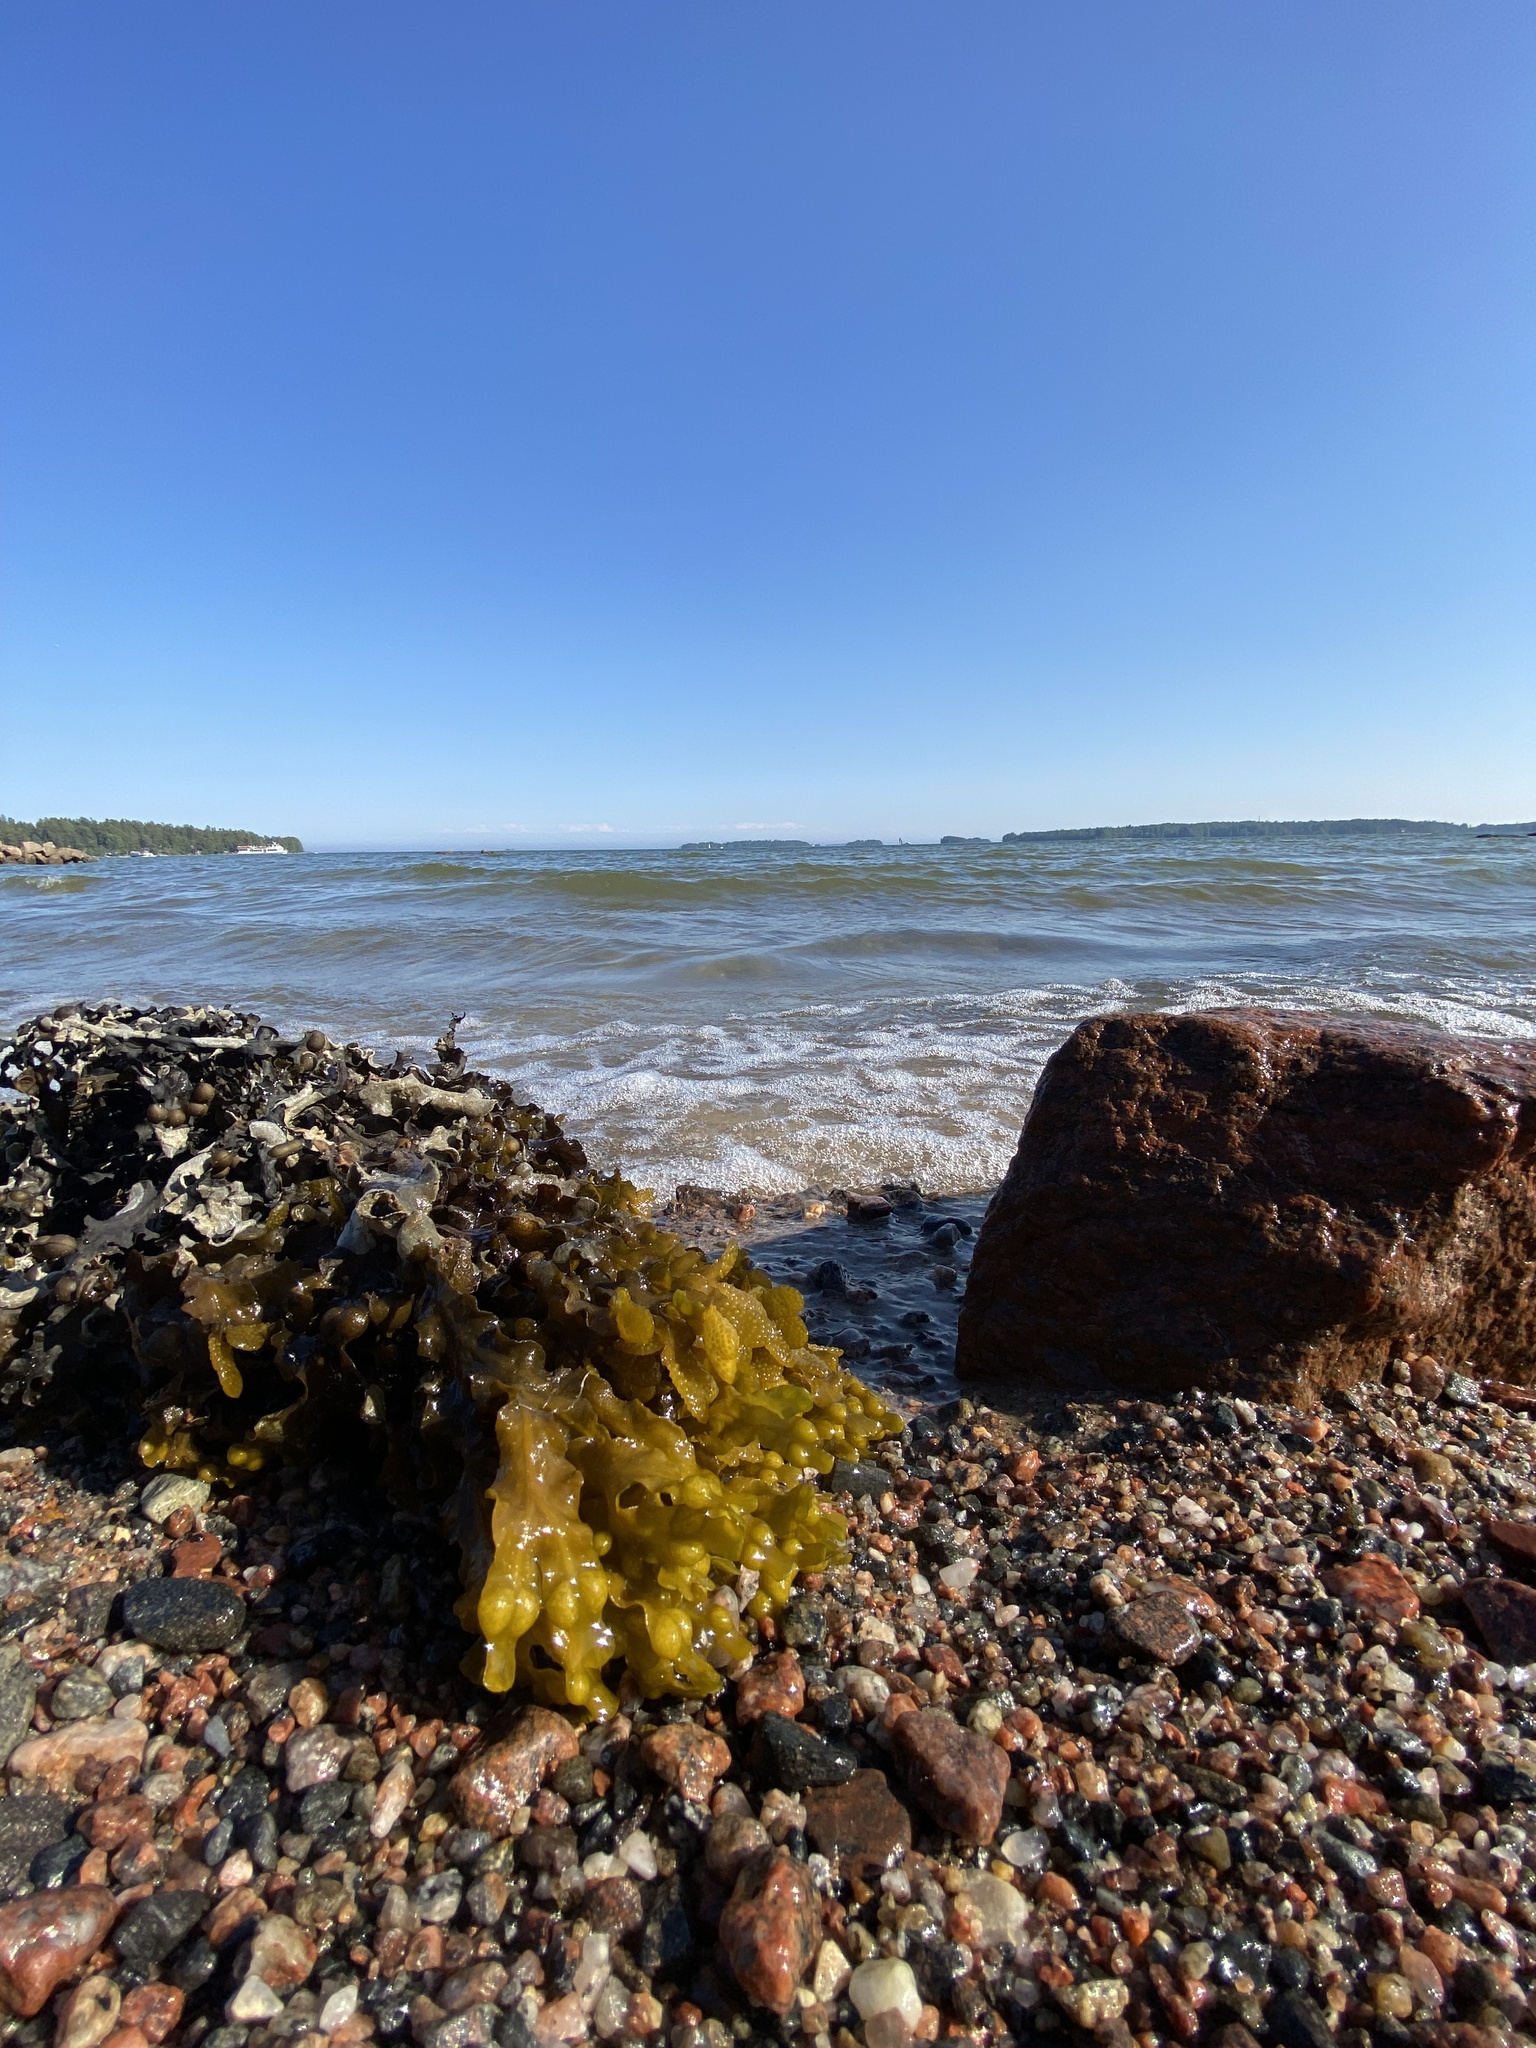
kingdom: Chromista
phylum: Ochrophyta
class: Phaeophyceae
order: Fucales
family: Fucaceae
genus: Fucus
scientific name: Fucus vesiculosus
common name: Bladder wrack
